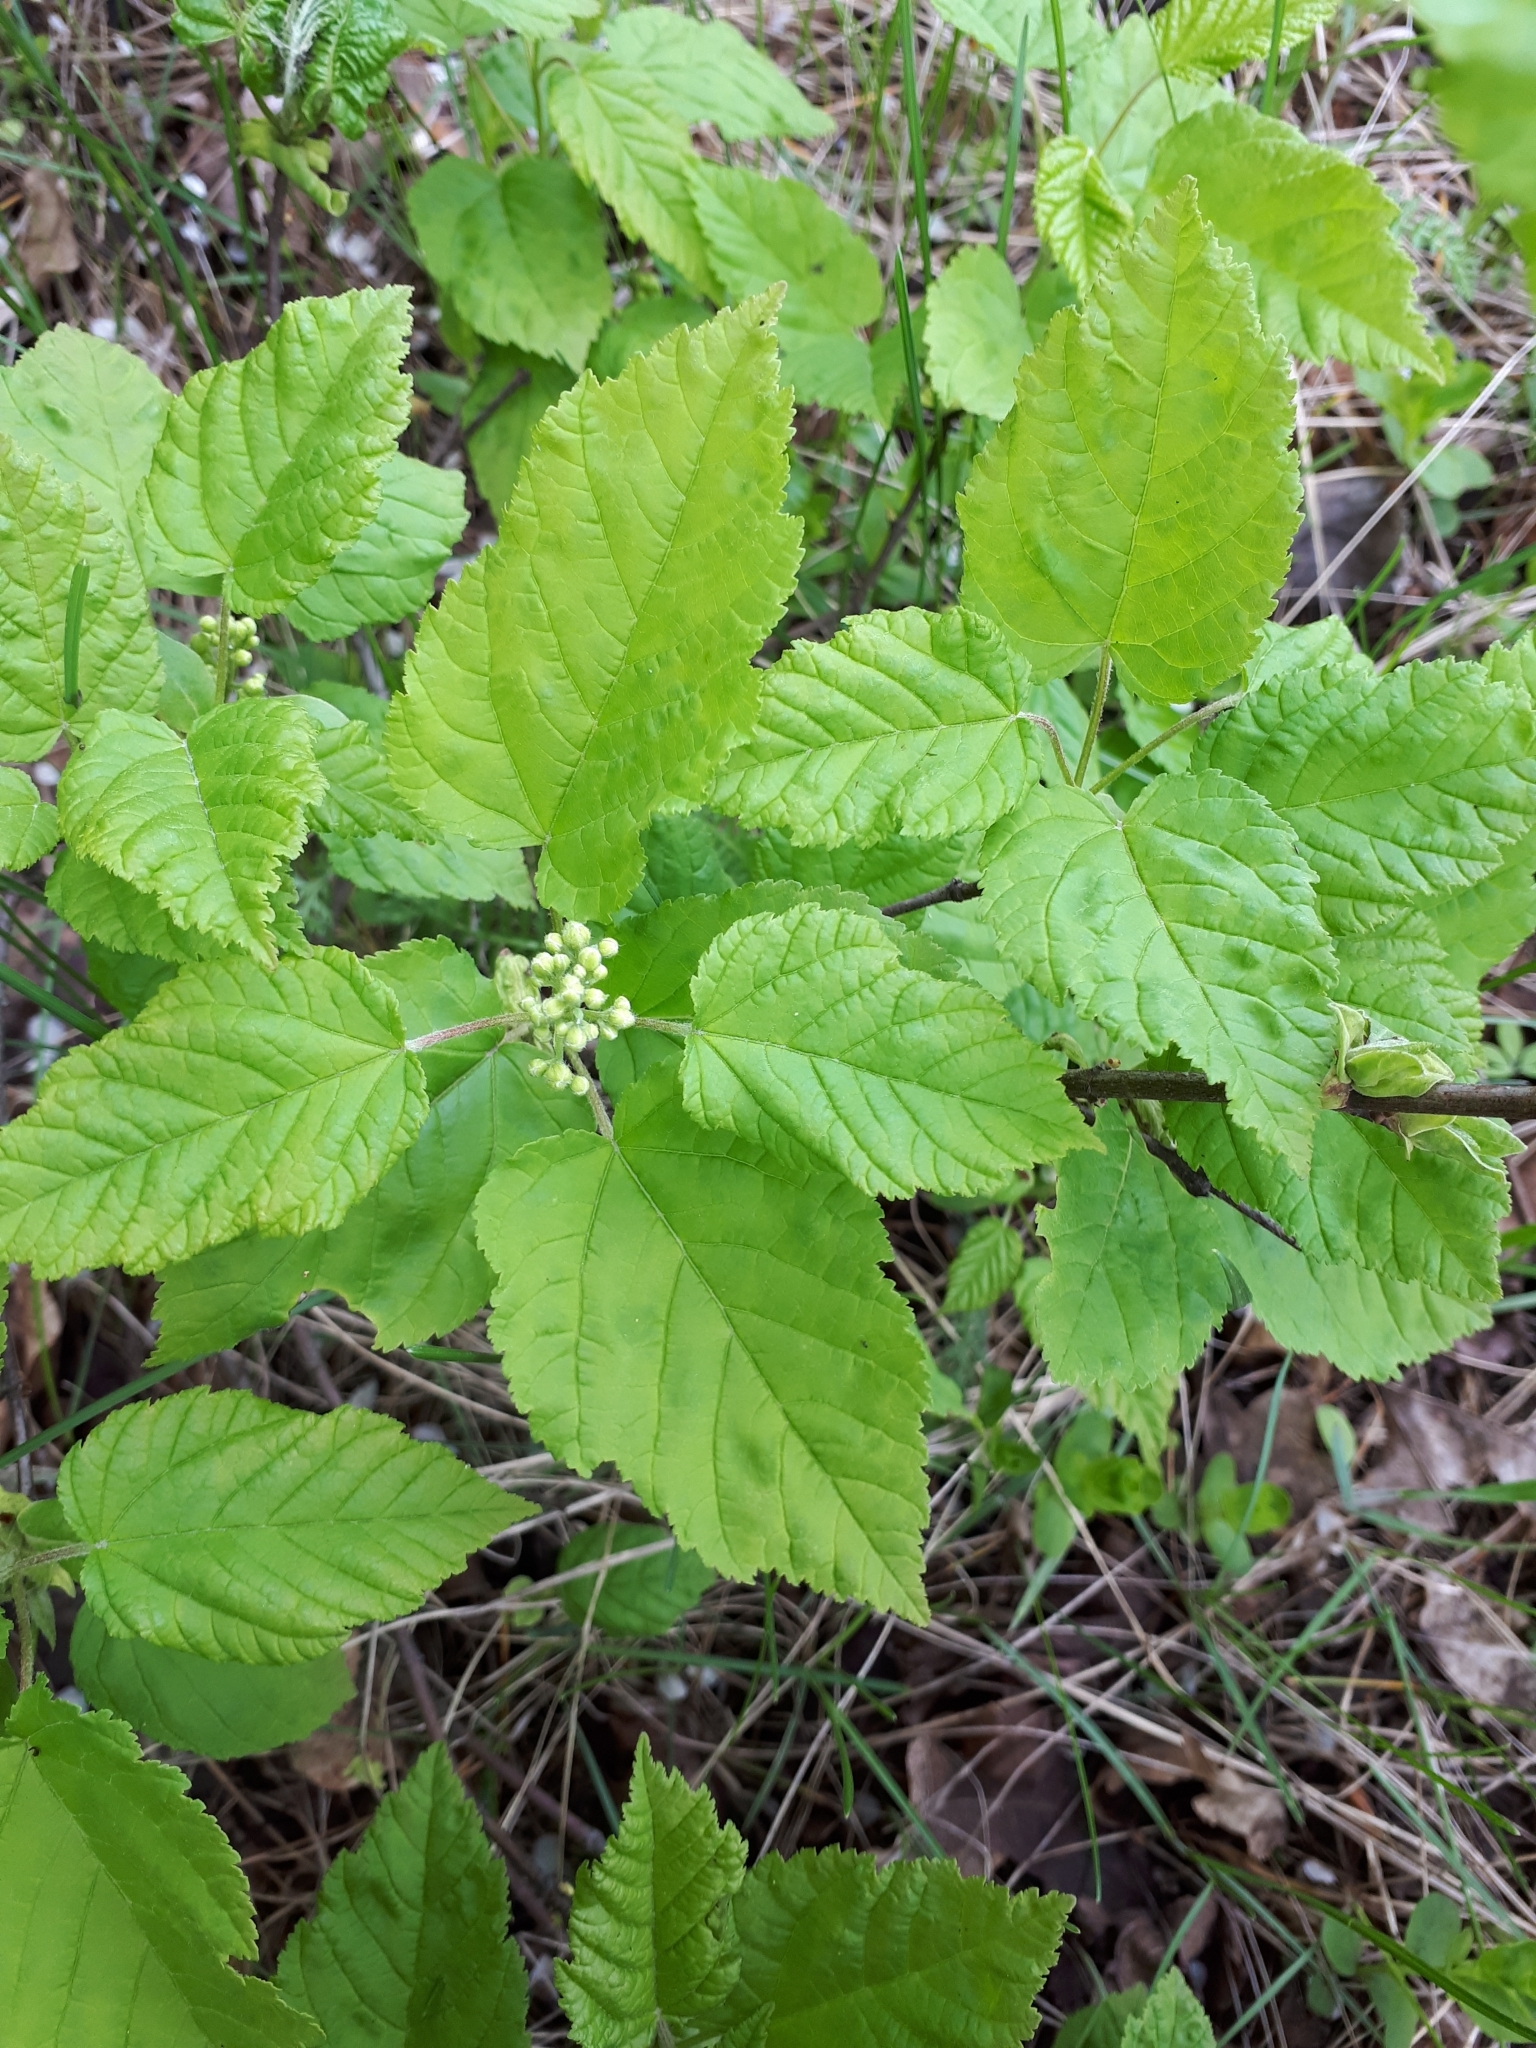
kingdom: Plantae
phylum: Tracheophyta
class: Magnoliopsida
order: Sapindales
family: Sapindaceae
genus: Acer
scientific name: Acer tataricum
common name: Tartar maple
